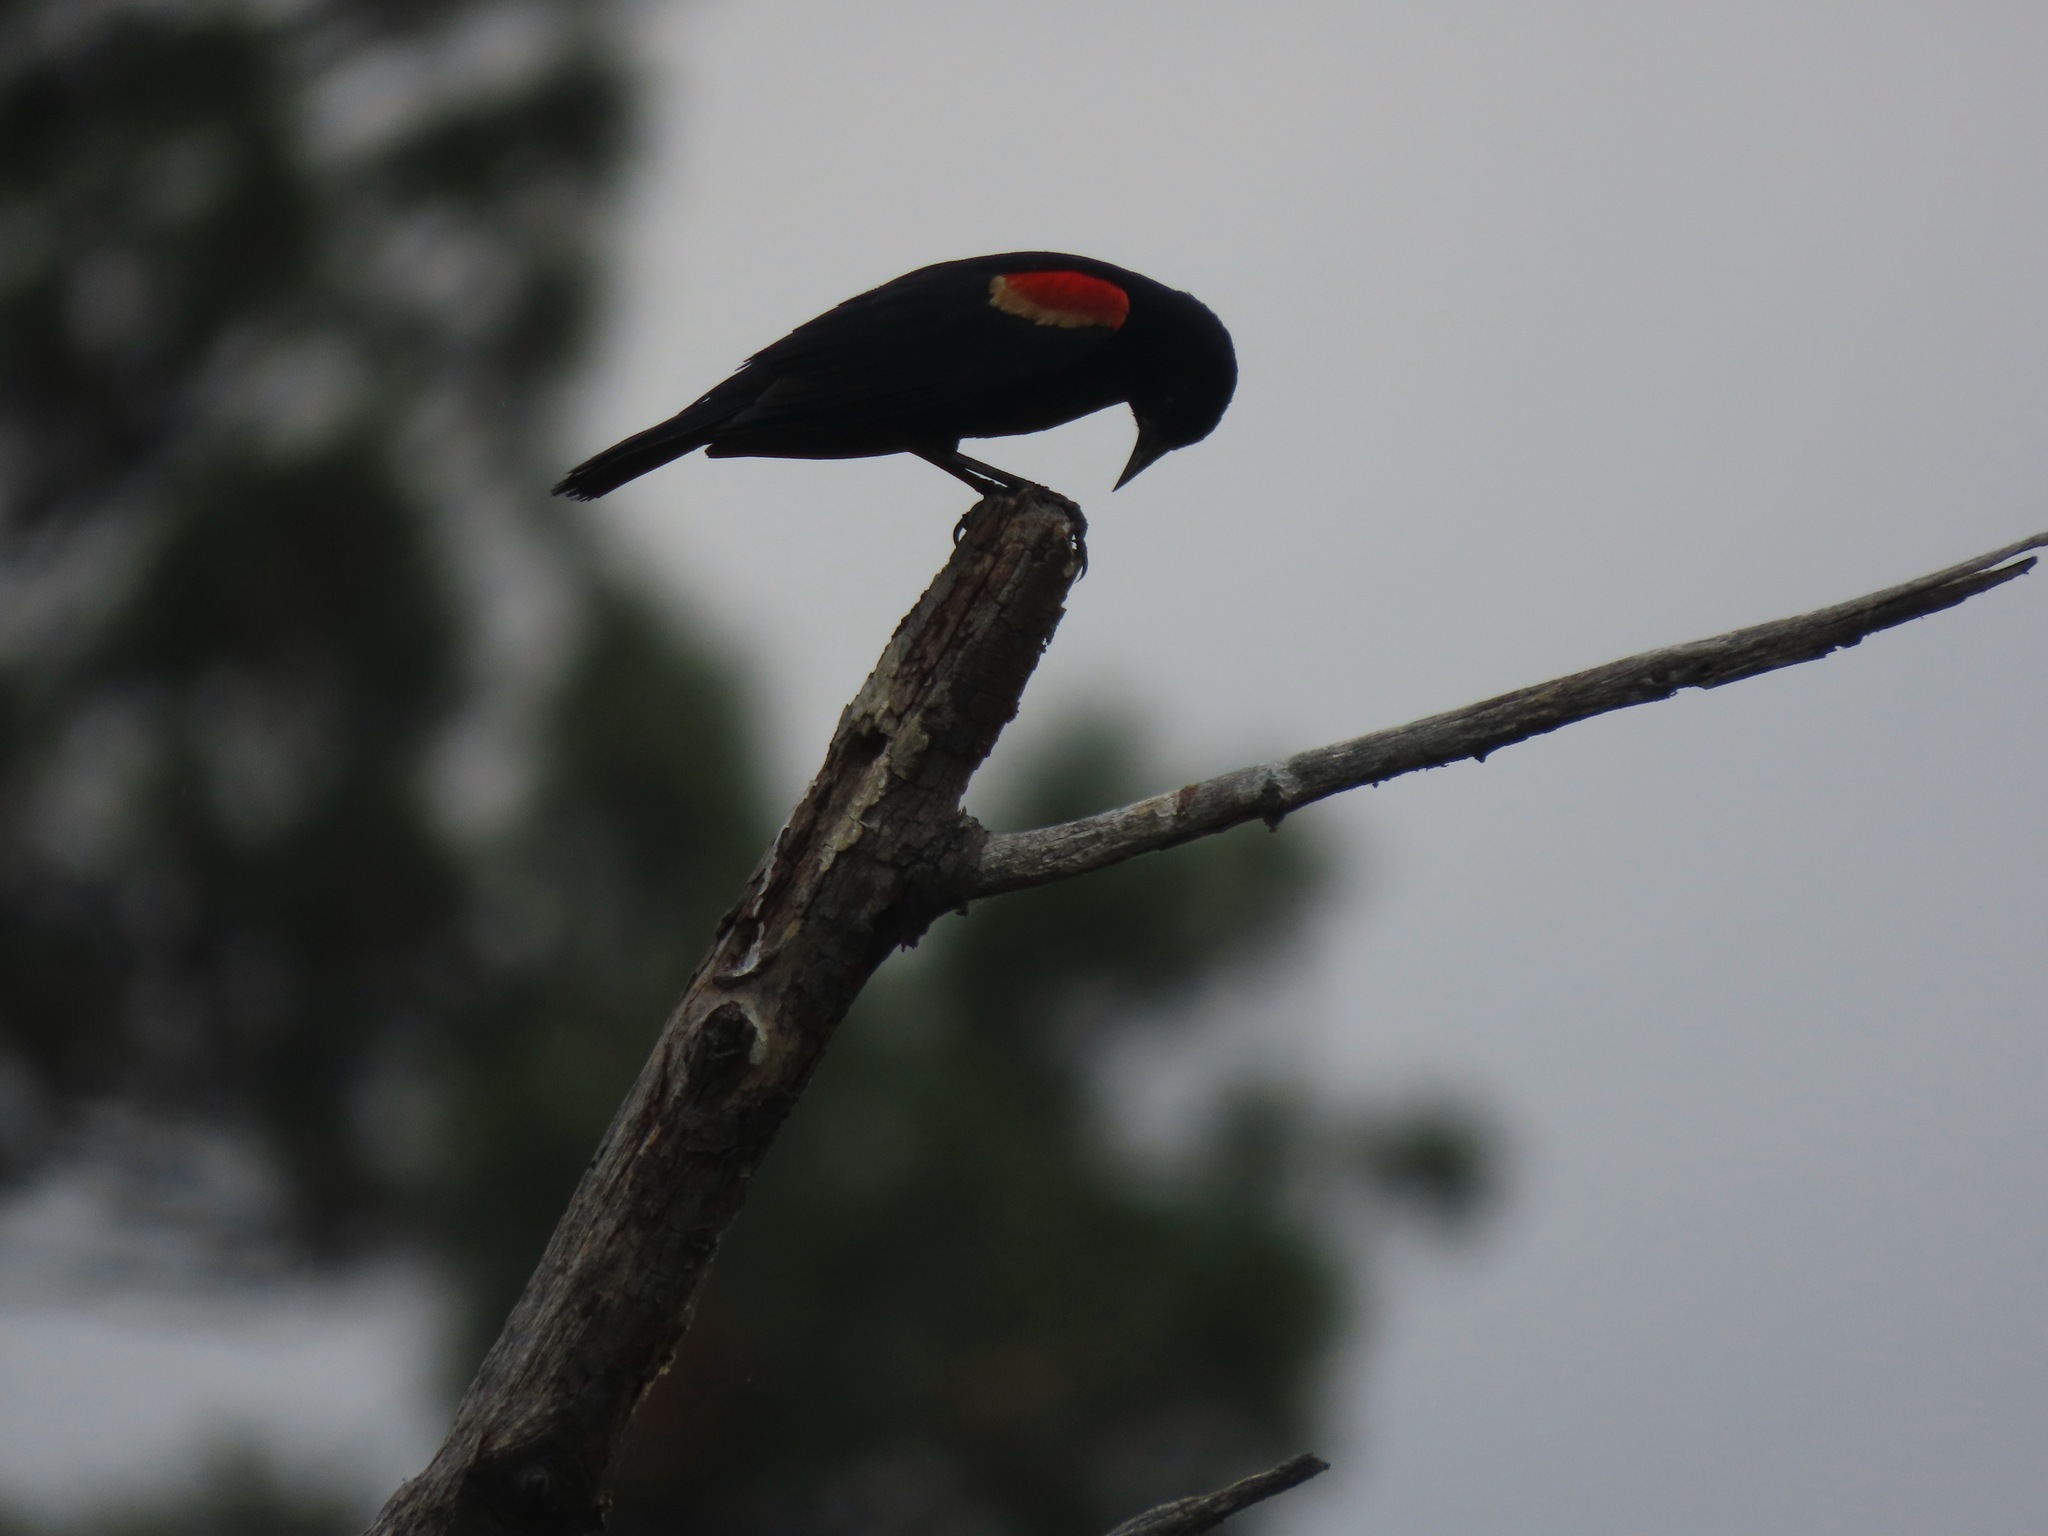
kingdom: Animalia
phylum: Chordata
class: Aves
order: Passeriformes
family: Icteridae
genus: Agelaius
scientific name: Agelaius phoeniceus
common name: Red-winged blackbird
